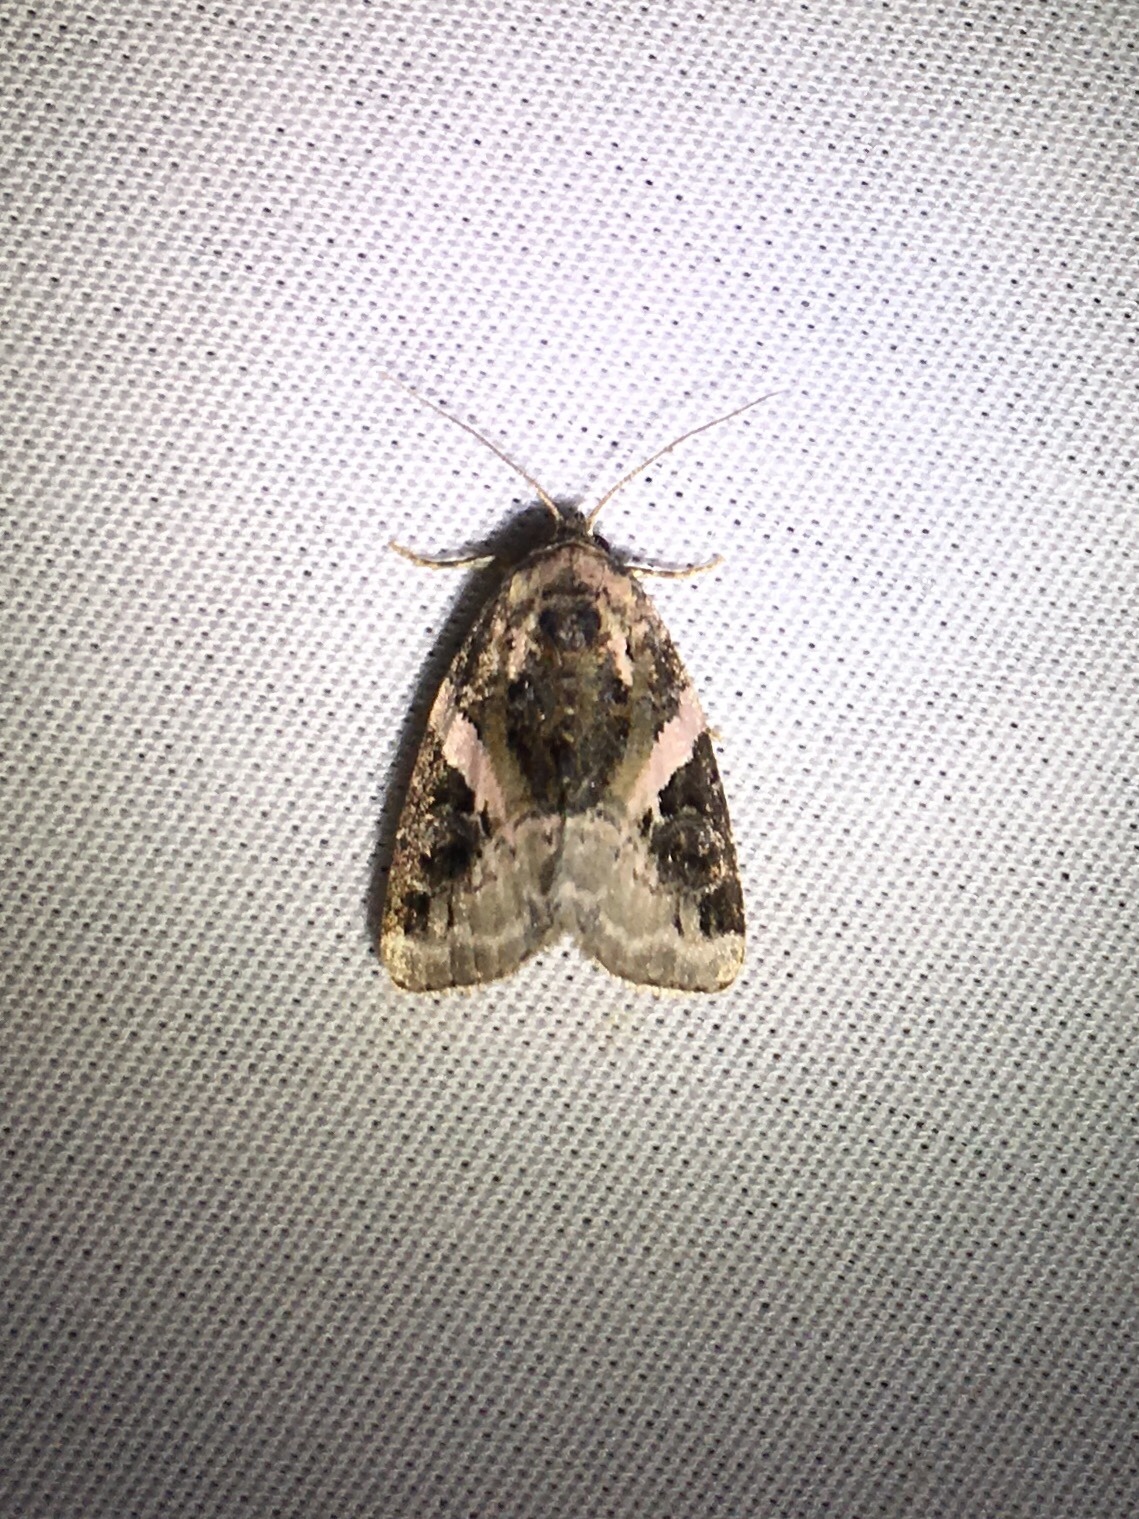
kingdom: Animalia
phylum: Arthropoda
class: Insecta
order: Lepidoptera
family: Noctuidae
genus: Pseudeustrotia
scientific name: Pseudeustrotia carneola
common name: Pink-barred lithacodia moth
